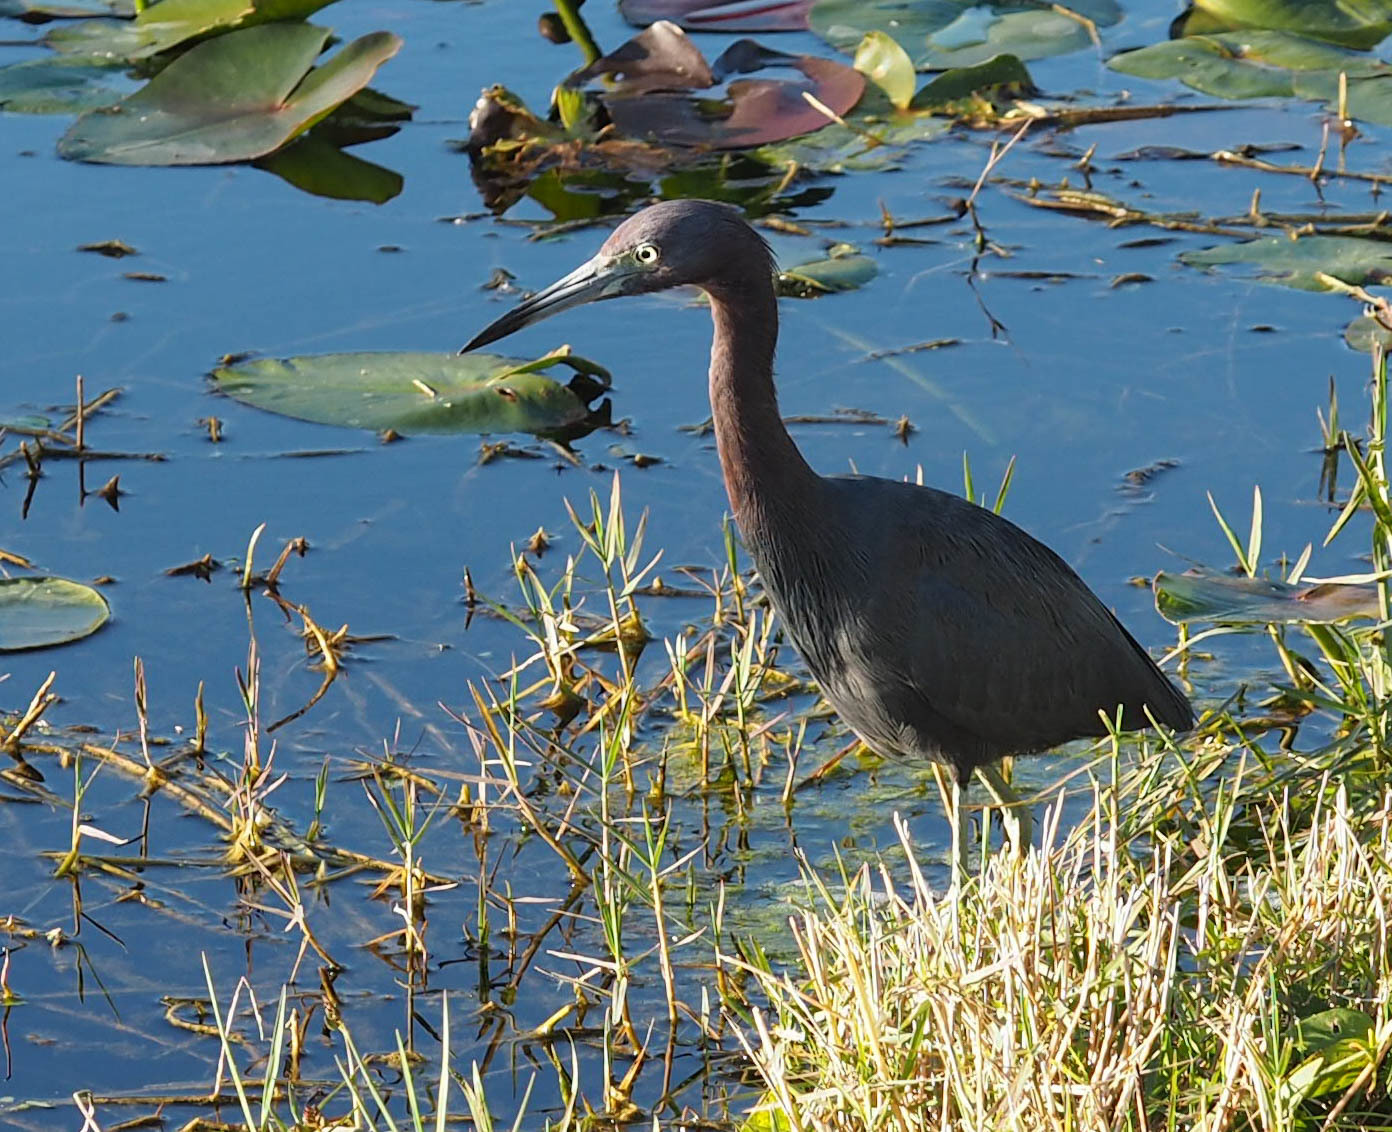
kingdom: Animalia
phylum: Chordata
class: Aves
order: Pelecaniformes
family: Ardeidae
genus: Egretta
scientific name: Egretta caerulea
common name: Little blue heron
